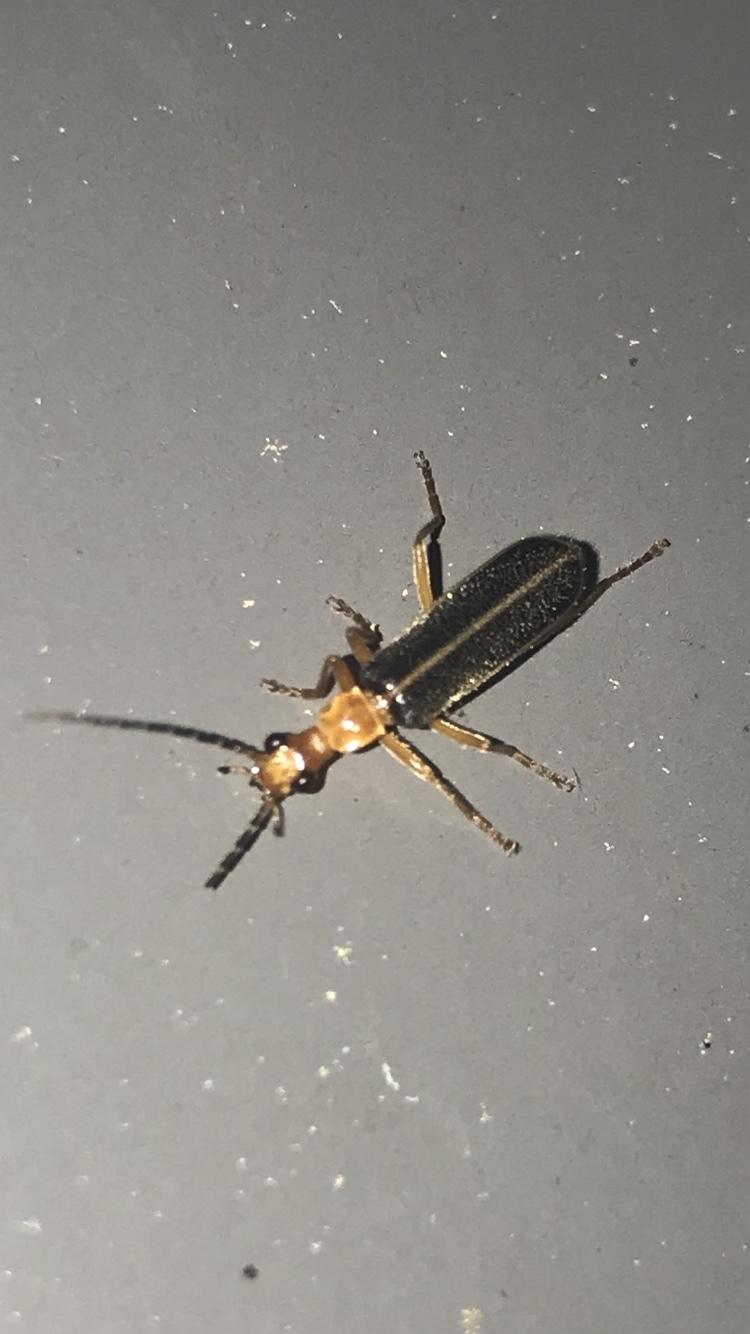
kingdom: Animalia
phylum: Arthropoda
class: Insecta
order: Coleoptera
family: Cantharidae
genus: Podabrus
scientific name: Podabrus brunnicollis
